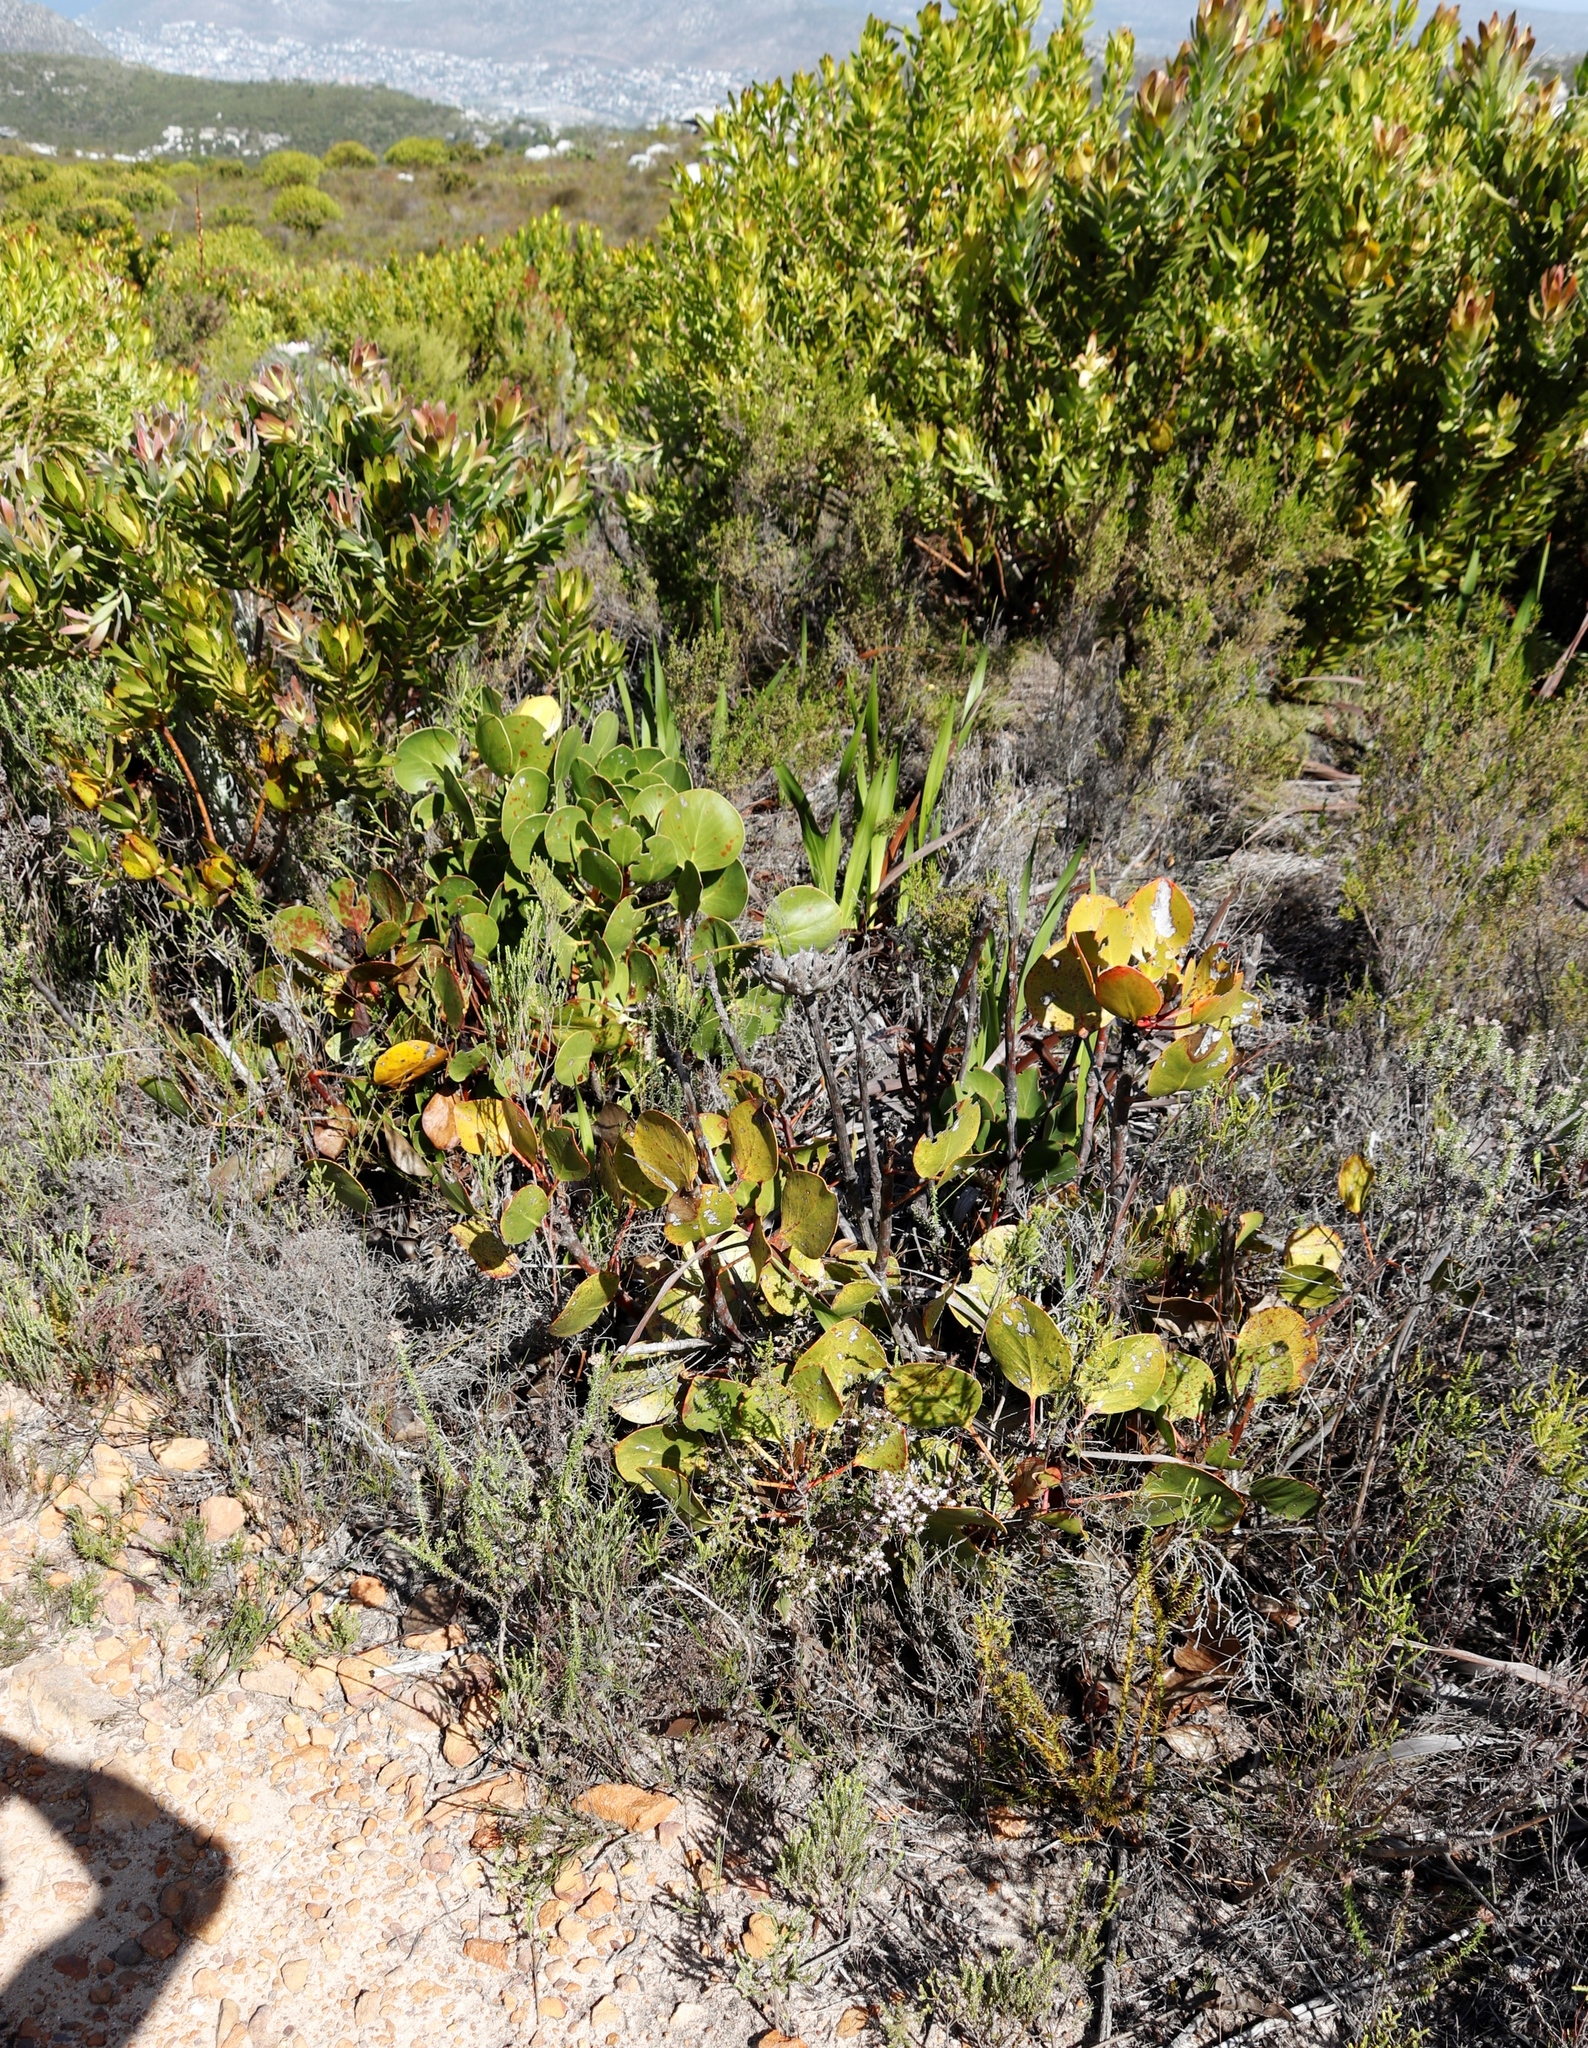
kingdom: Plantae
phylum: Tracheophyta
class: Magnoliopsida
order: Proteales
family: Proteaceae
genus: Protea
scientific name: Protea cynaroides
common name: King protea
